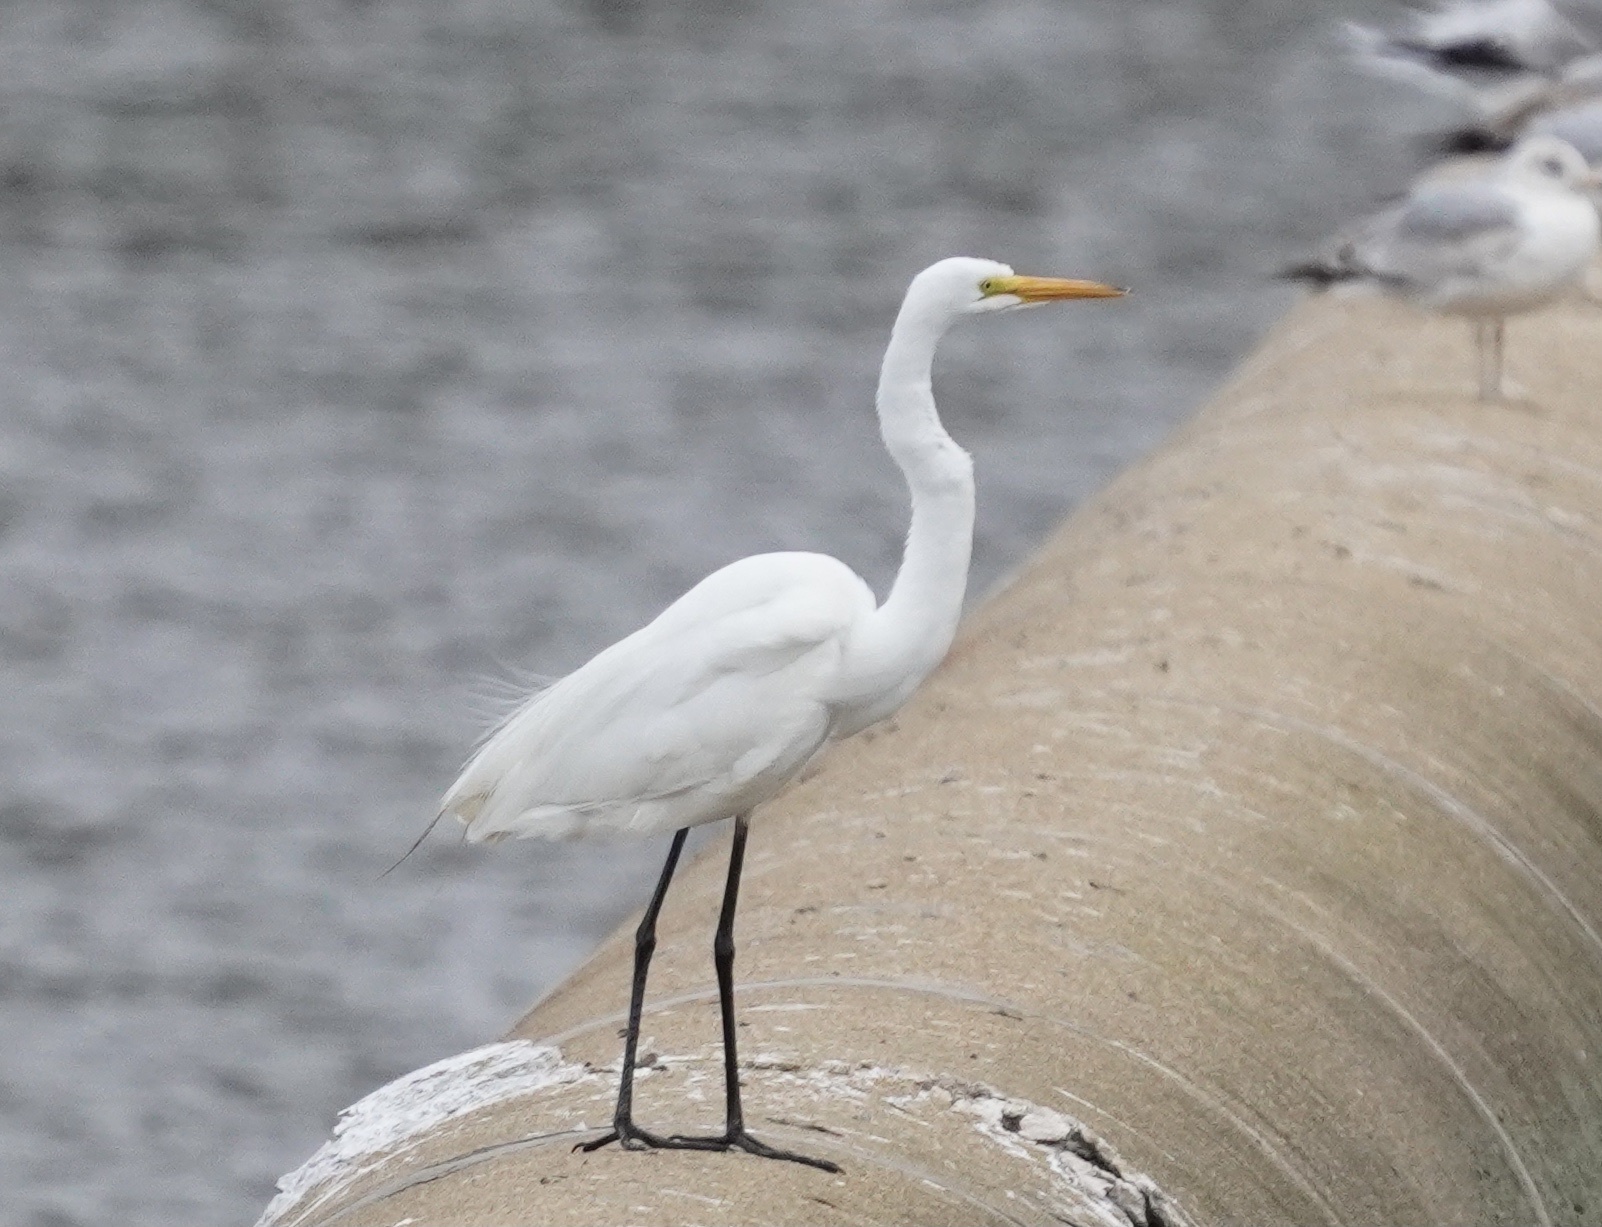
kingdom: Animalia
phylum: Chordata
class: Aves
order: Pelecaniformes
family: Ardeidae
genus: Ardea
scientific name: Ardea alba
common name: Great egret
